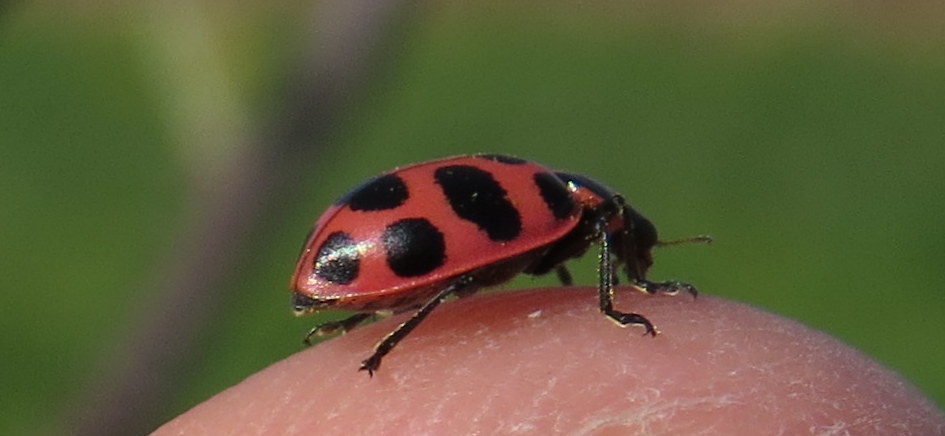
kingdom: Animalia
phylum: Arthropoda
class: Insecta
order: Coleoptera
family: Coccinellidae
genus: Coleomegilla
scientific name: Coleomegilla maculata
